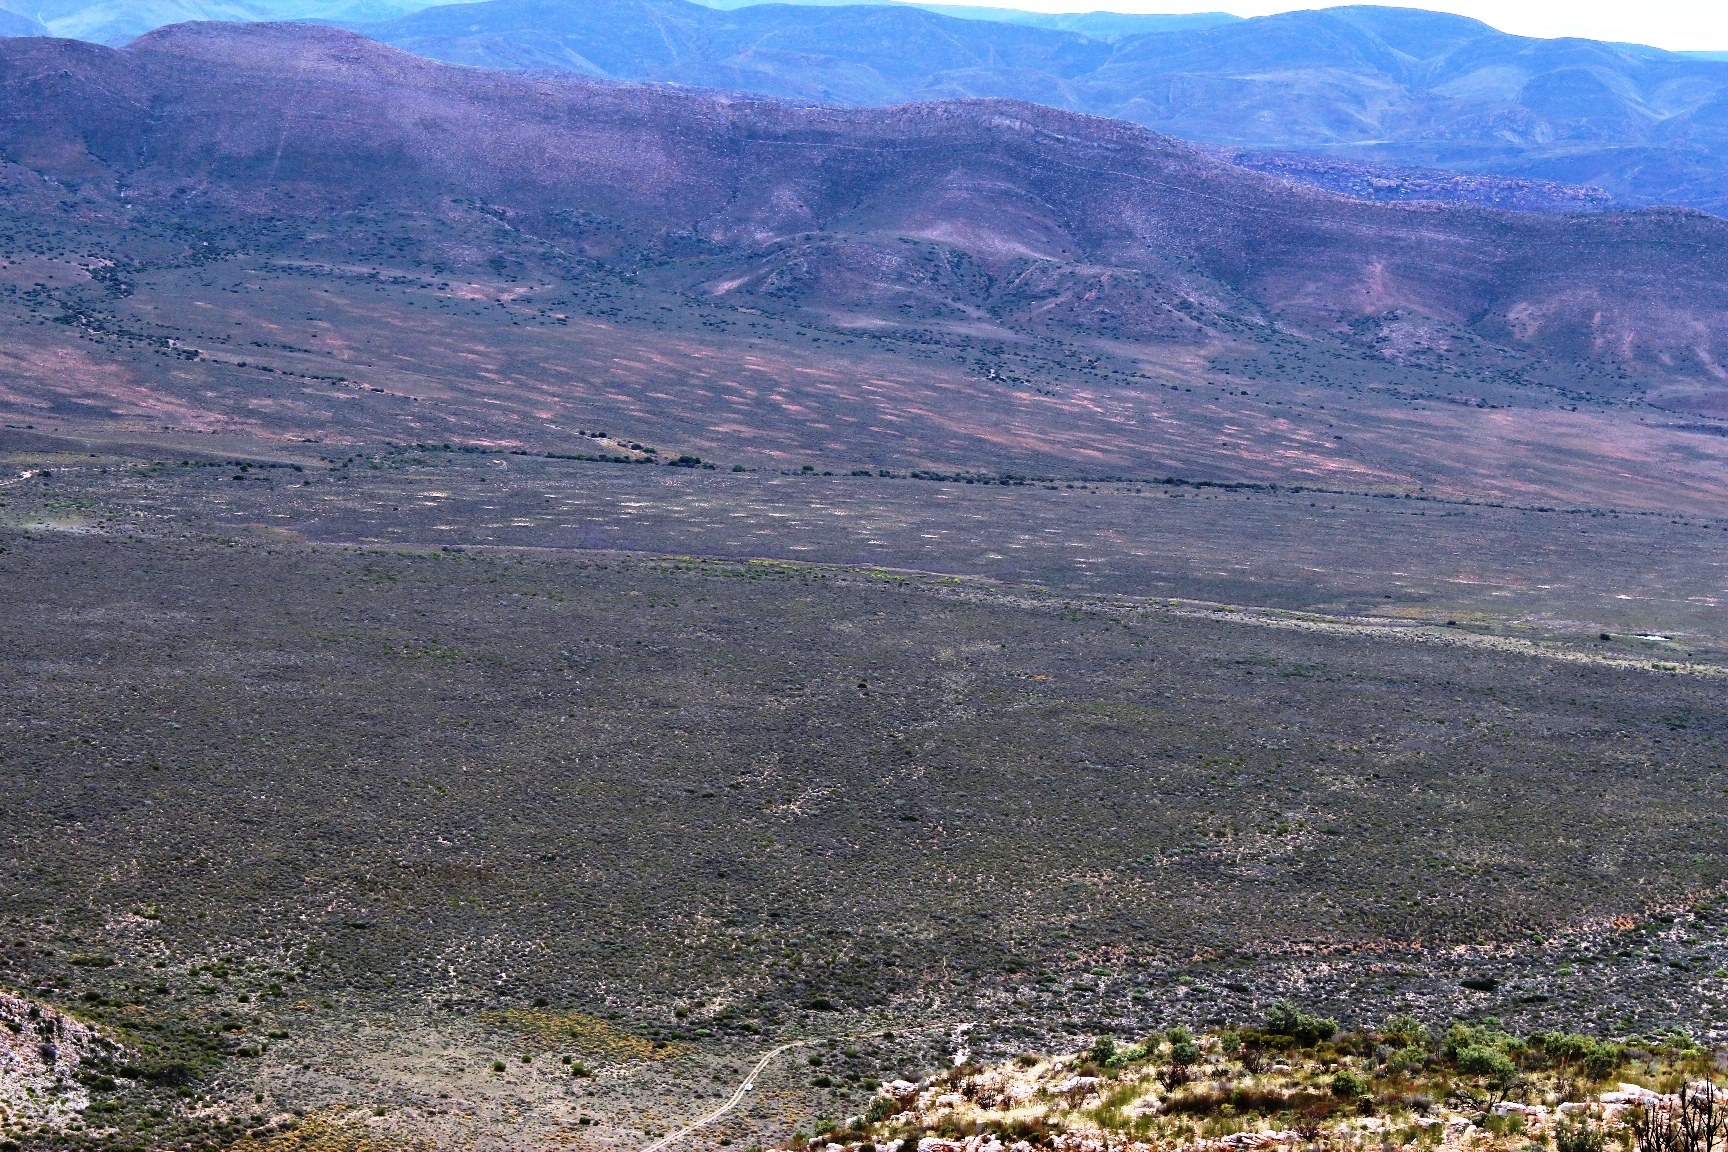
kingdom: Animalia
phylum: Arthropoda
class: Insecta
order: Blattodea
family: Hodotermitidae
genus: Microhodotermes
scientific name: Microhodotermes viator
